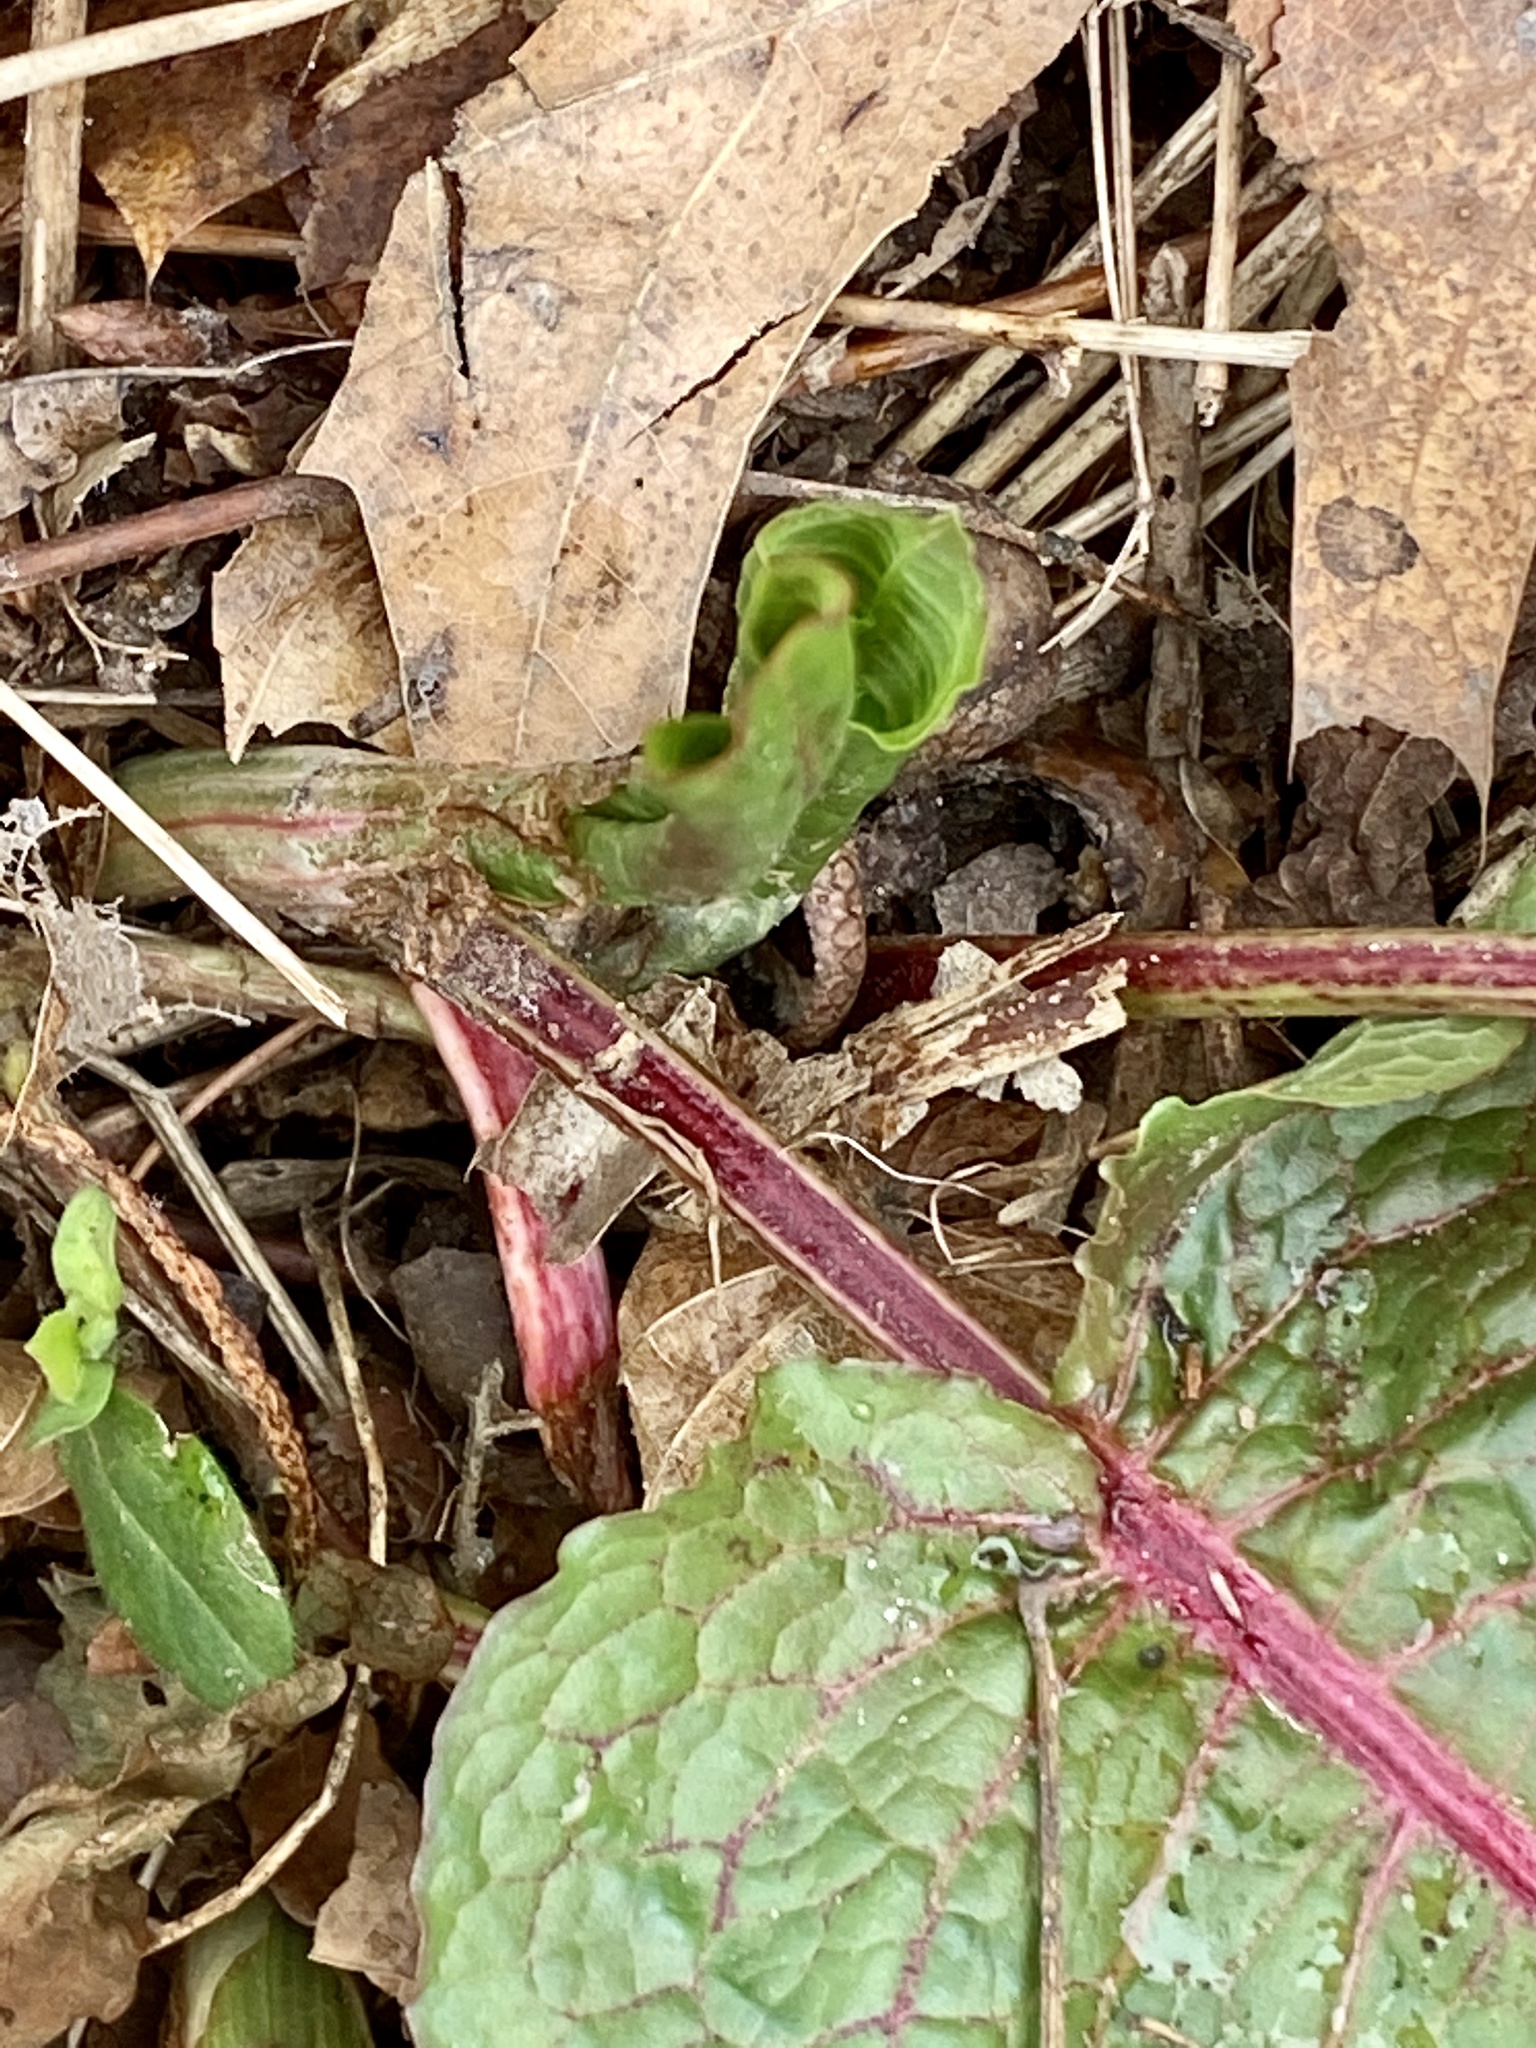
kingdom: Plantae
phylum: Tracheophyta
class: Magnoliopsida
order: Caryophyllales
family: Polygonaceae
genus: Rumex
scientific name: Rumex obtusifolius
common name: Bitter dock
